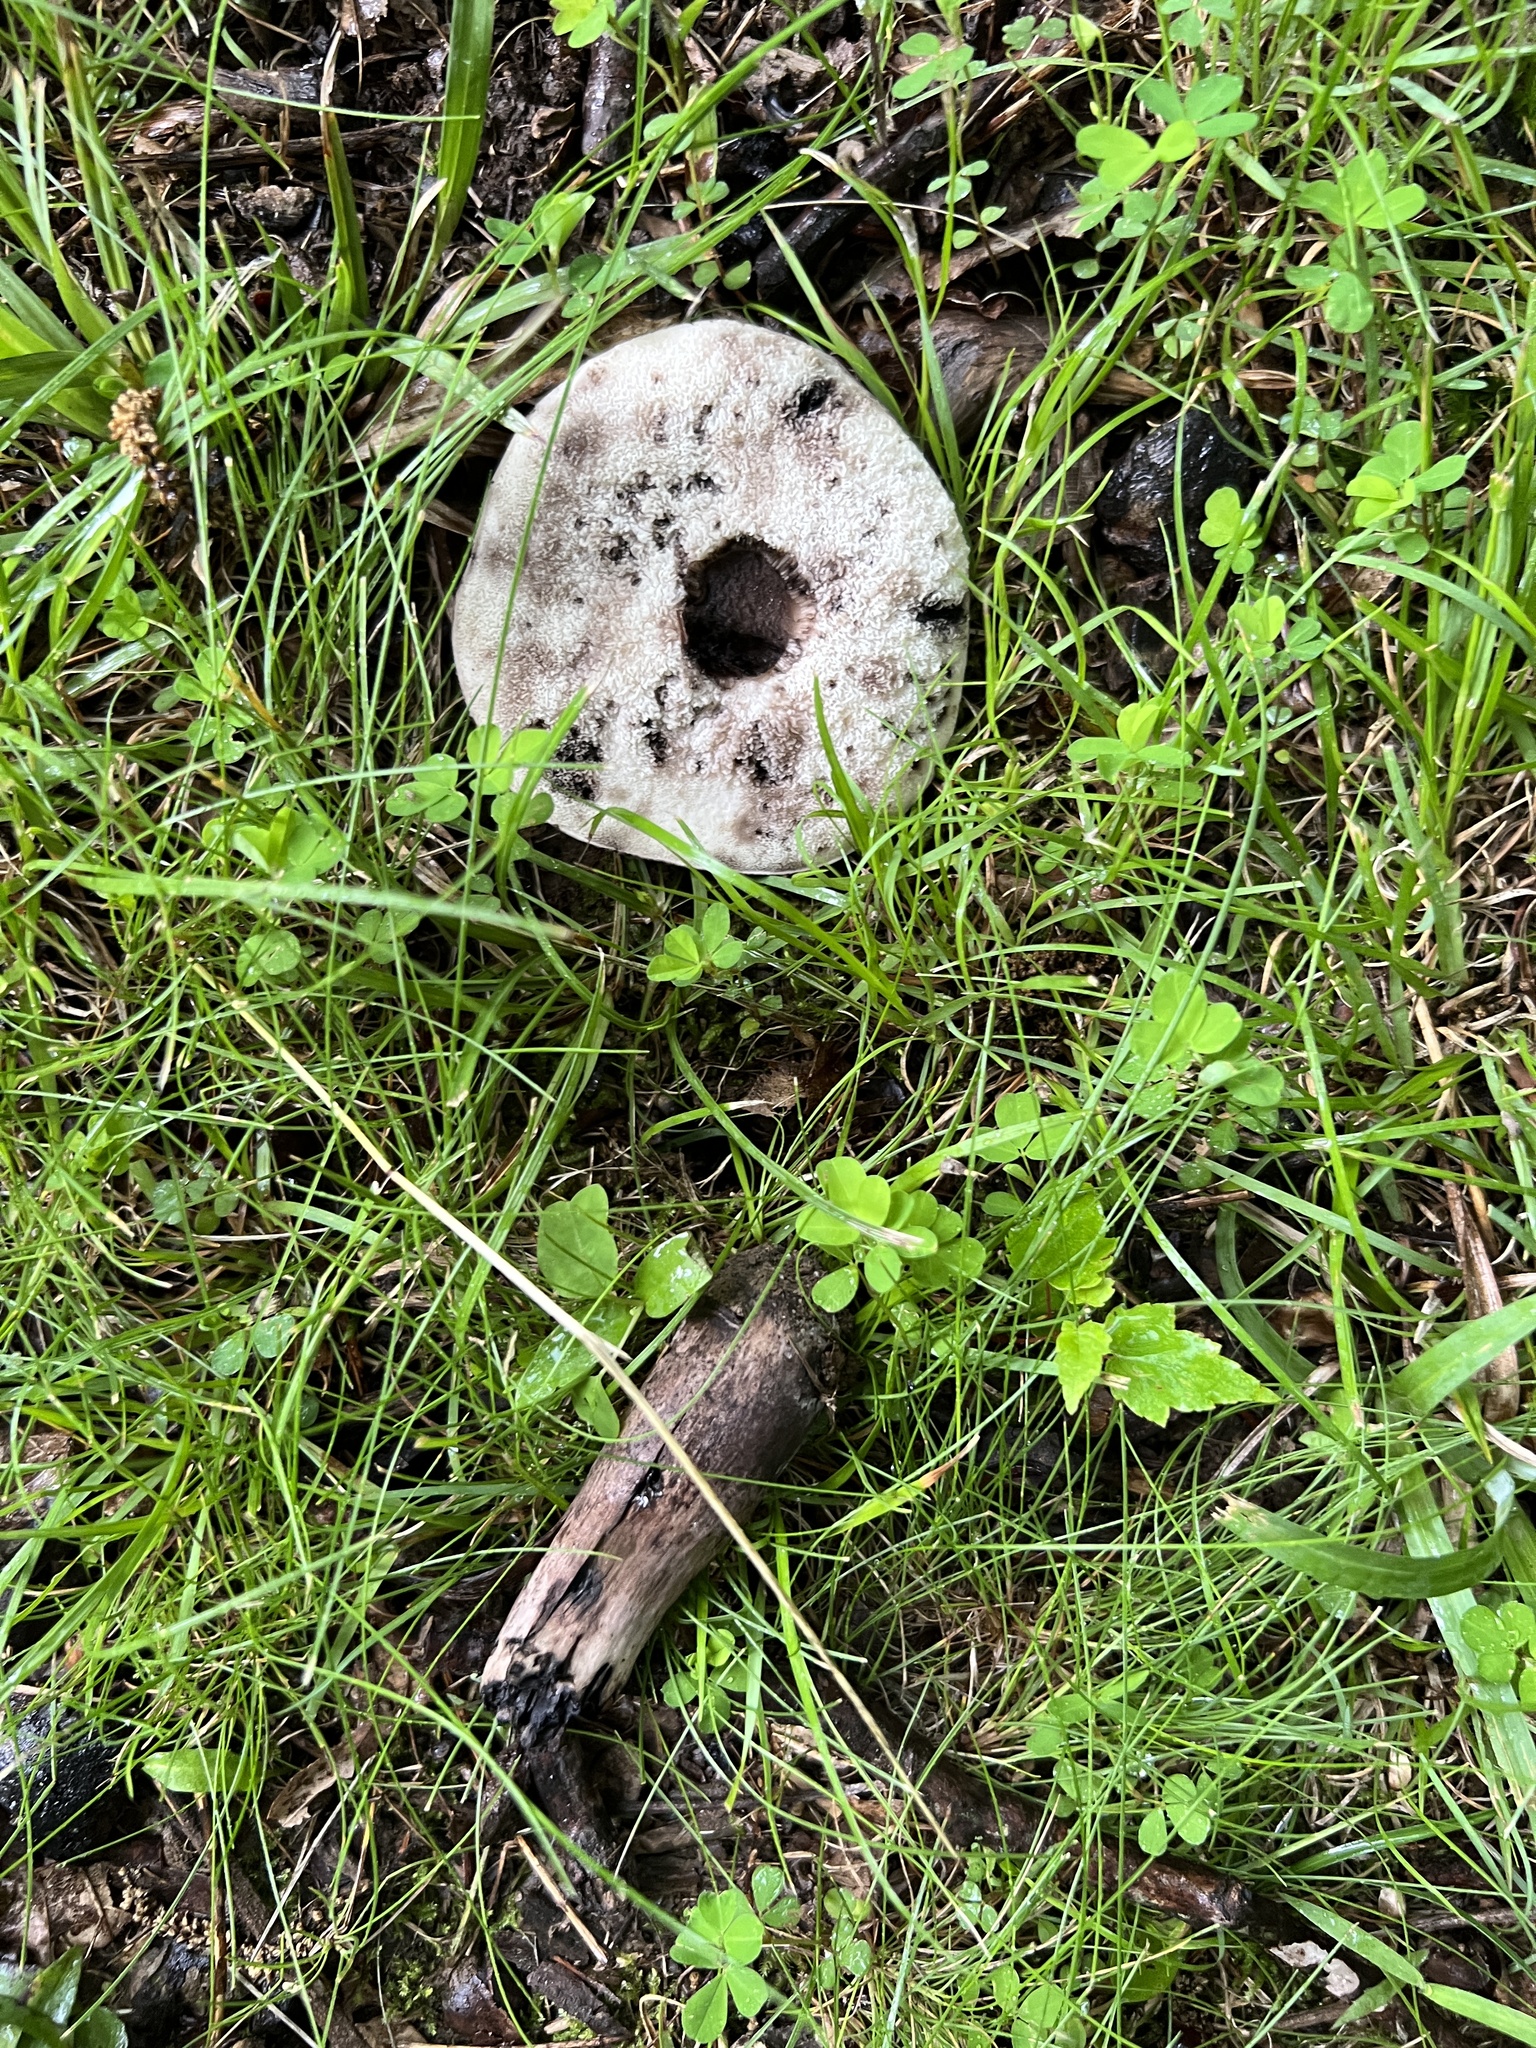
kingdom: Fungi
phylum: Basidiomycota
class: Agaricomycetes
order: Boletales
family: Boletaceae
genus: Tylopilus
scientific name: Tylopilus alboater
